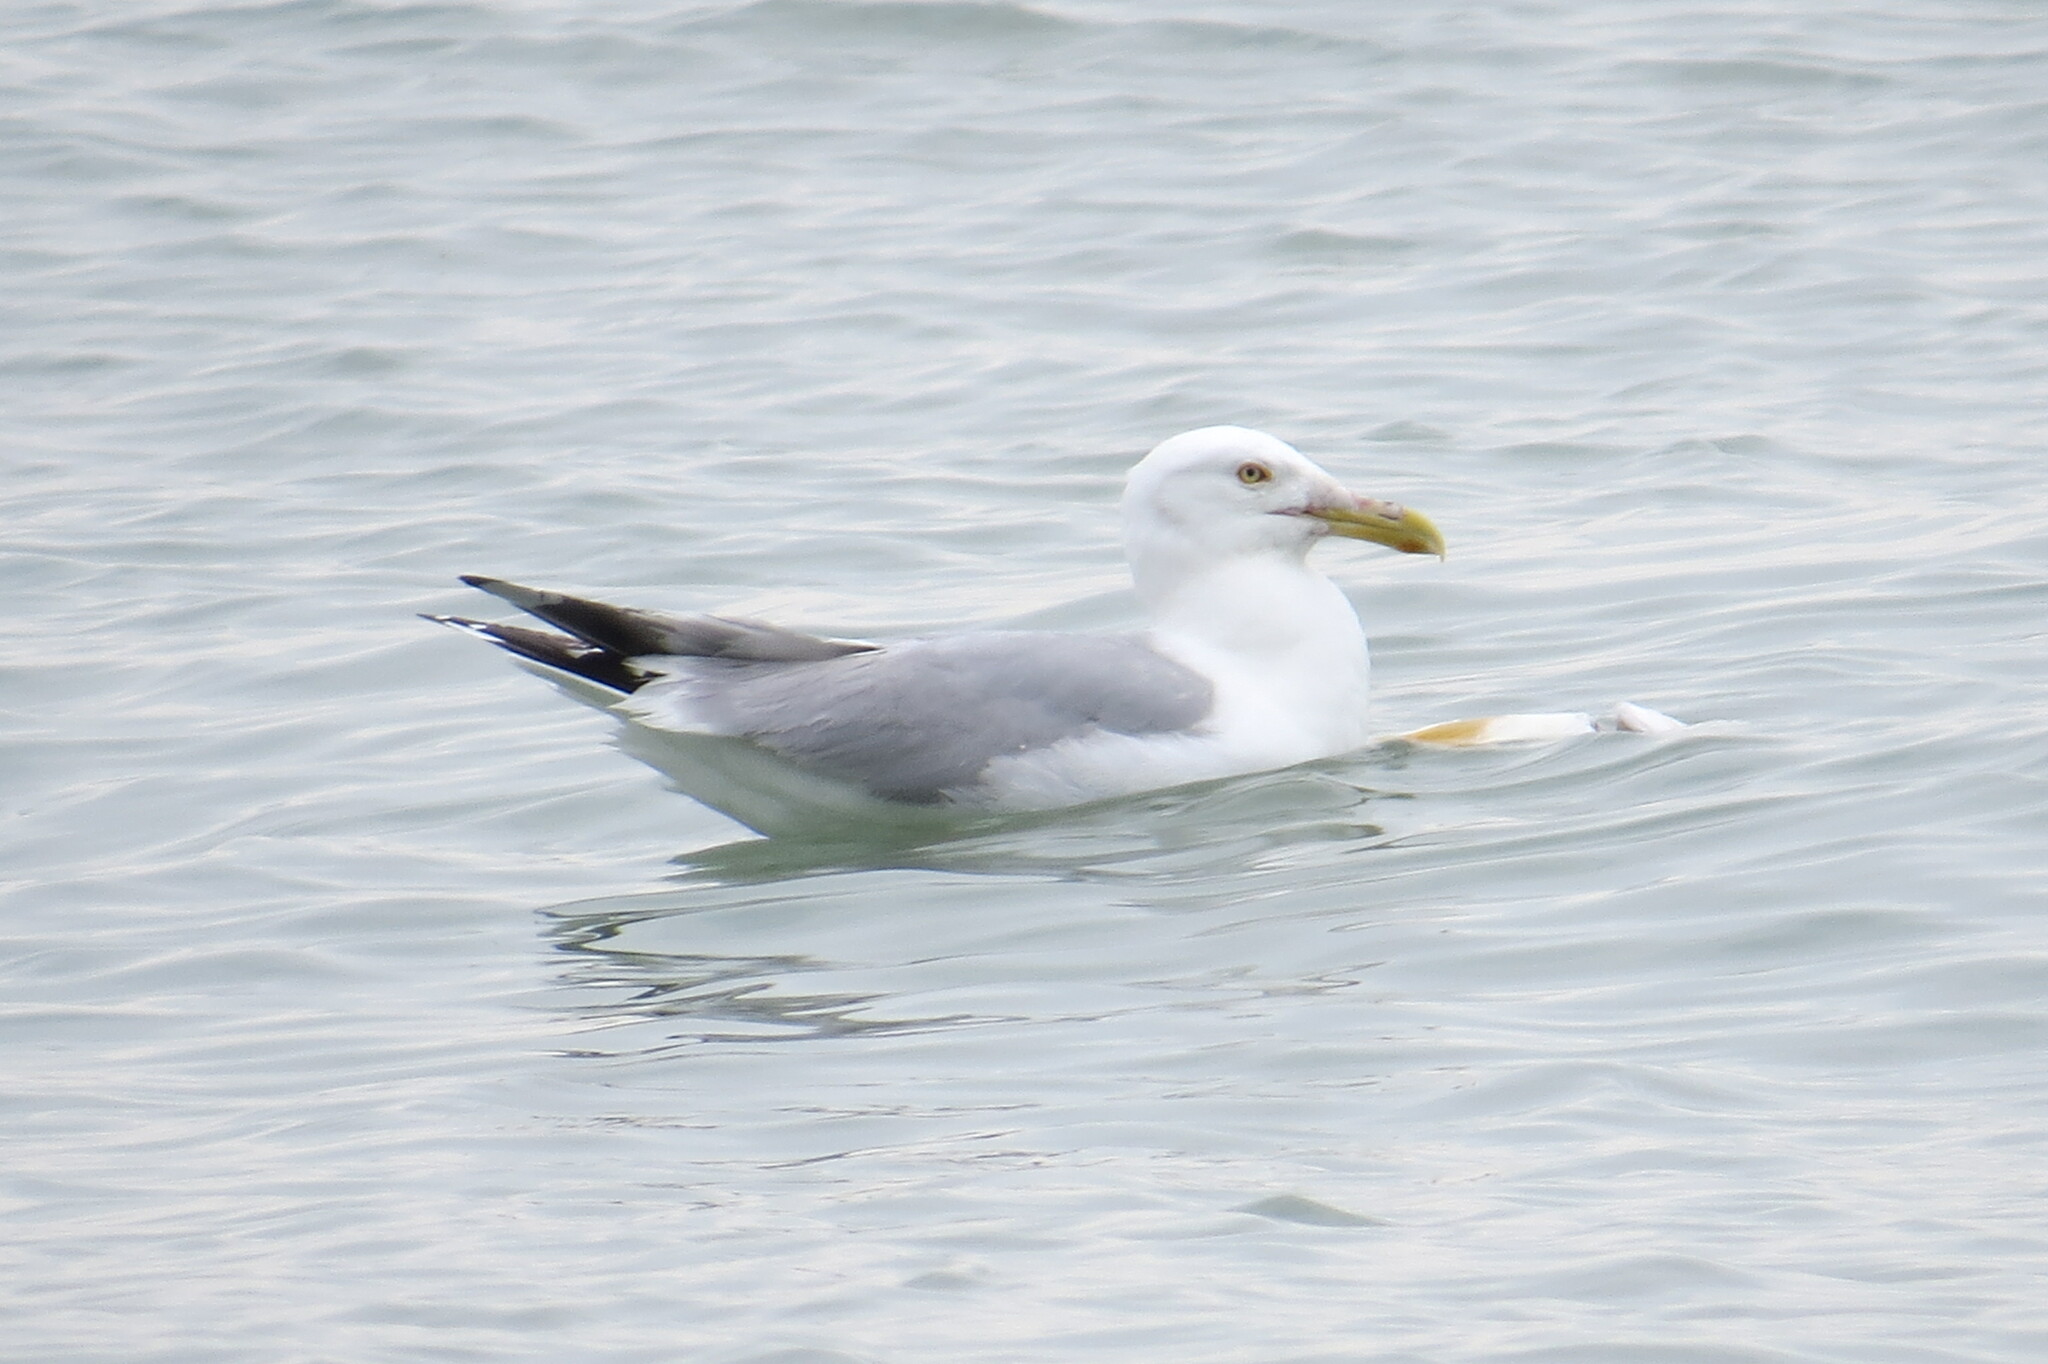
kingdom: Animalia
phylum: Chordata
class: Aves
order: Charadriiformes
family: Laridae
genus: Larus
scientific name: Larus argentatus
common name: Herring gull
